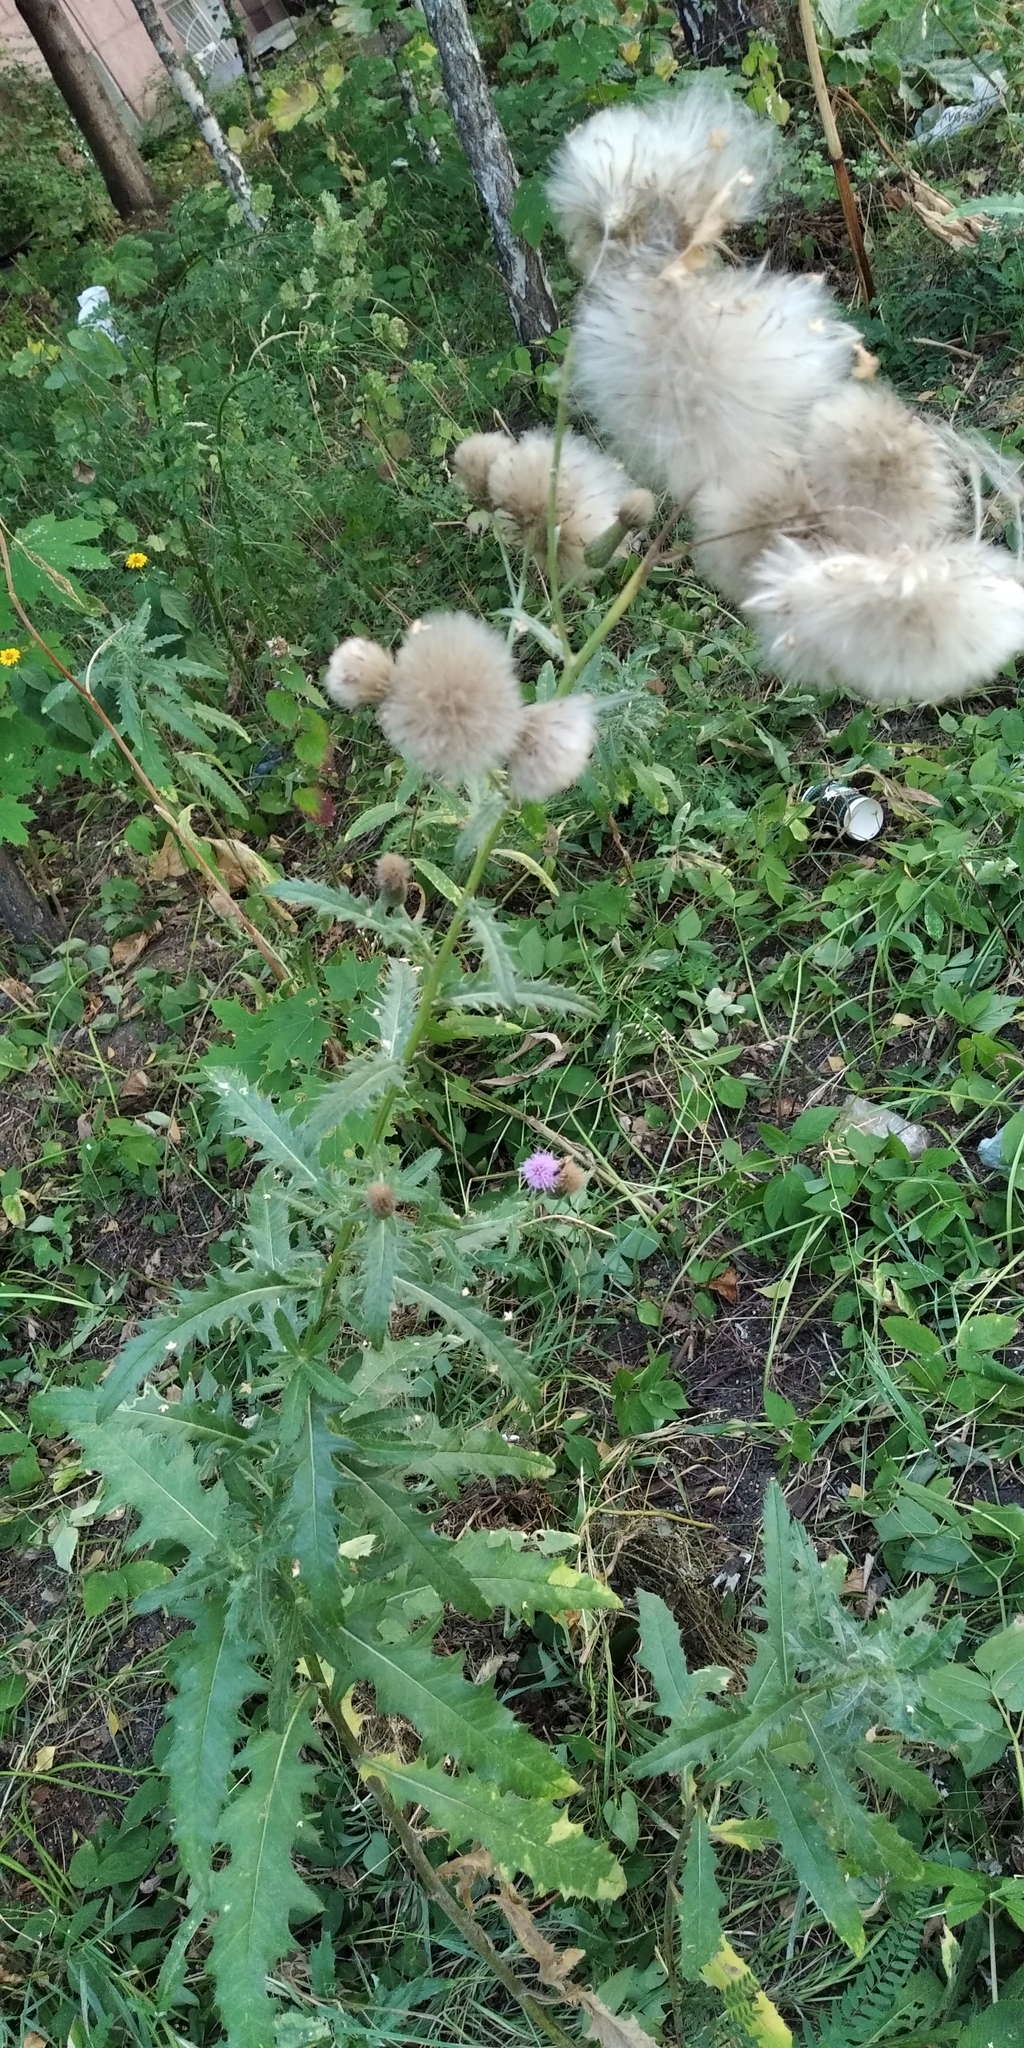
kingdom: Plantae
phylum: Tracheophyta
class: Magnoliopsida
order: Asterales
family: Asteraceae
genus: Cirsium
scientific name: Cirsium arvense
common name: Creeping thistle
